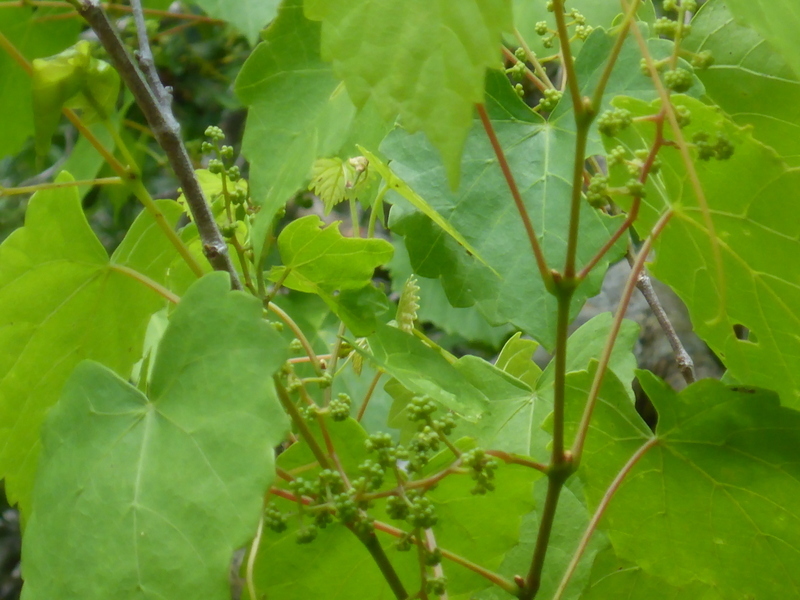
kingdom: Plantae
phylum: Tracheophyta
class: Magnoliopsida
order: Vitales
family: Vitaceae
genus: Vitis
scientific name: Vitis rotundifolia
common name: Muscadine grape
